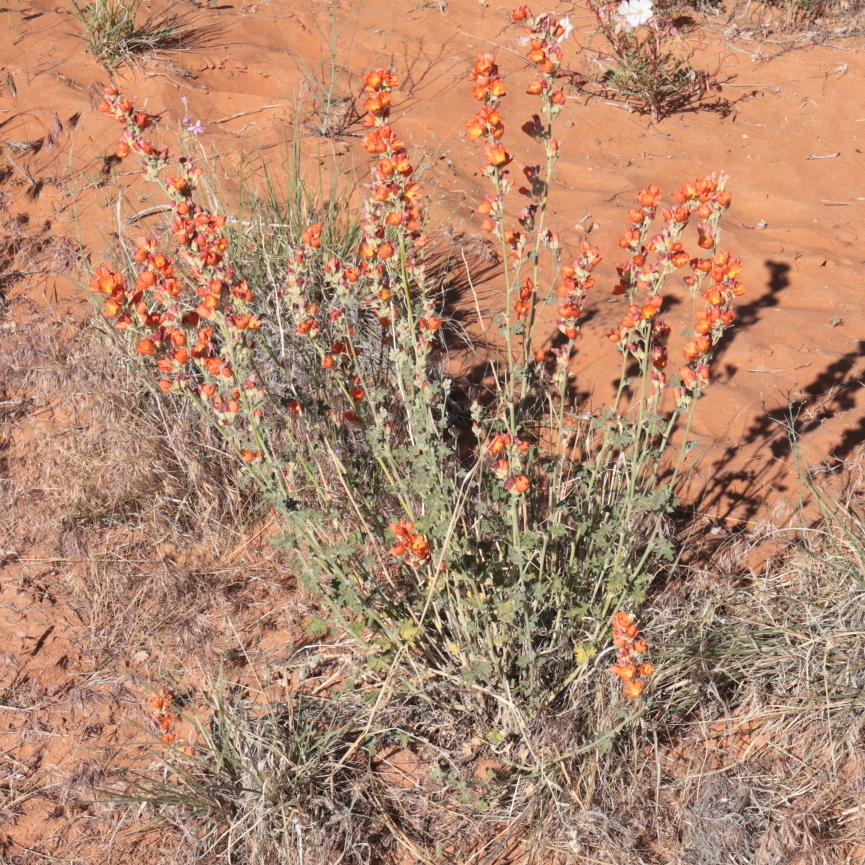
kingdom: Plantae
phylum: Tracheophyta
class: Magnoliopsida
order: Malvales
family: Malvaceae
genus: Sphaeralcea
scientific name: Sphaeralcea parvifolia
